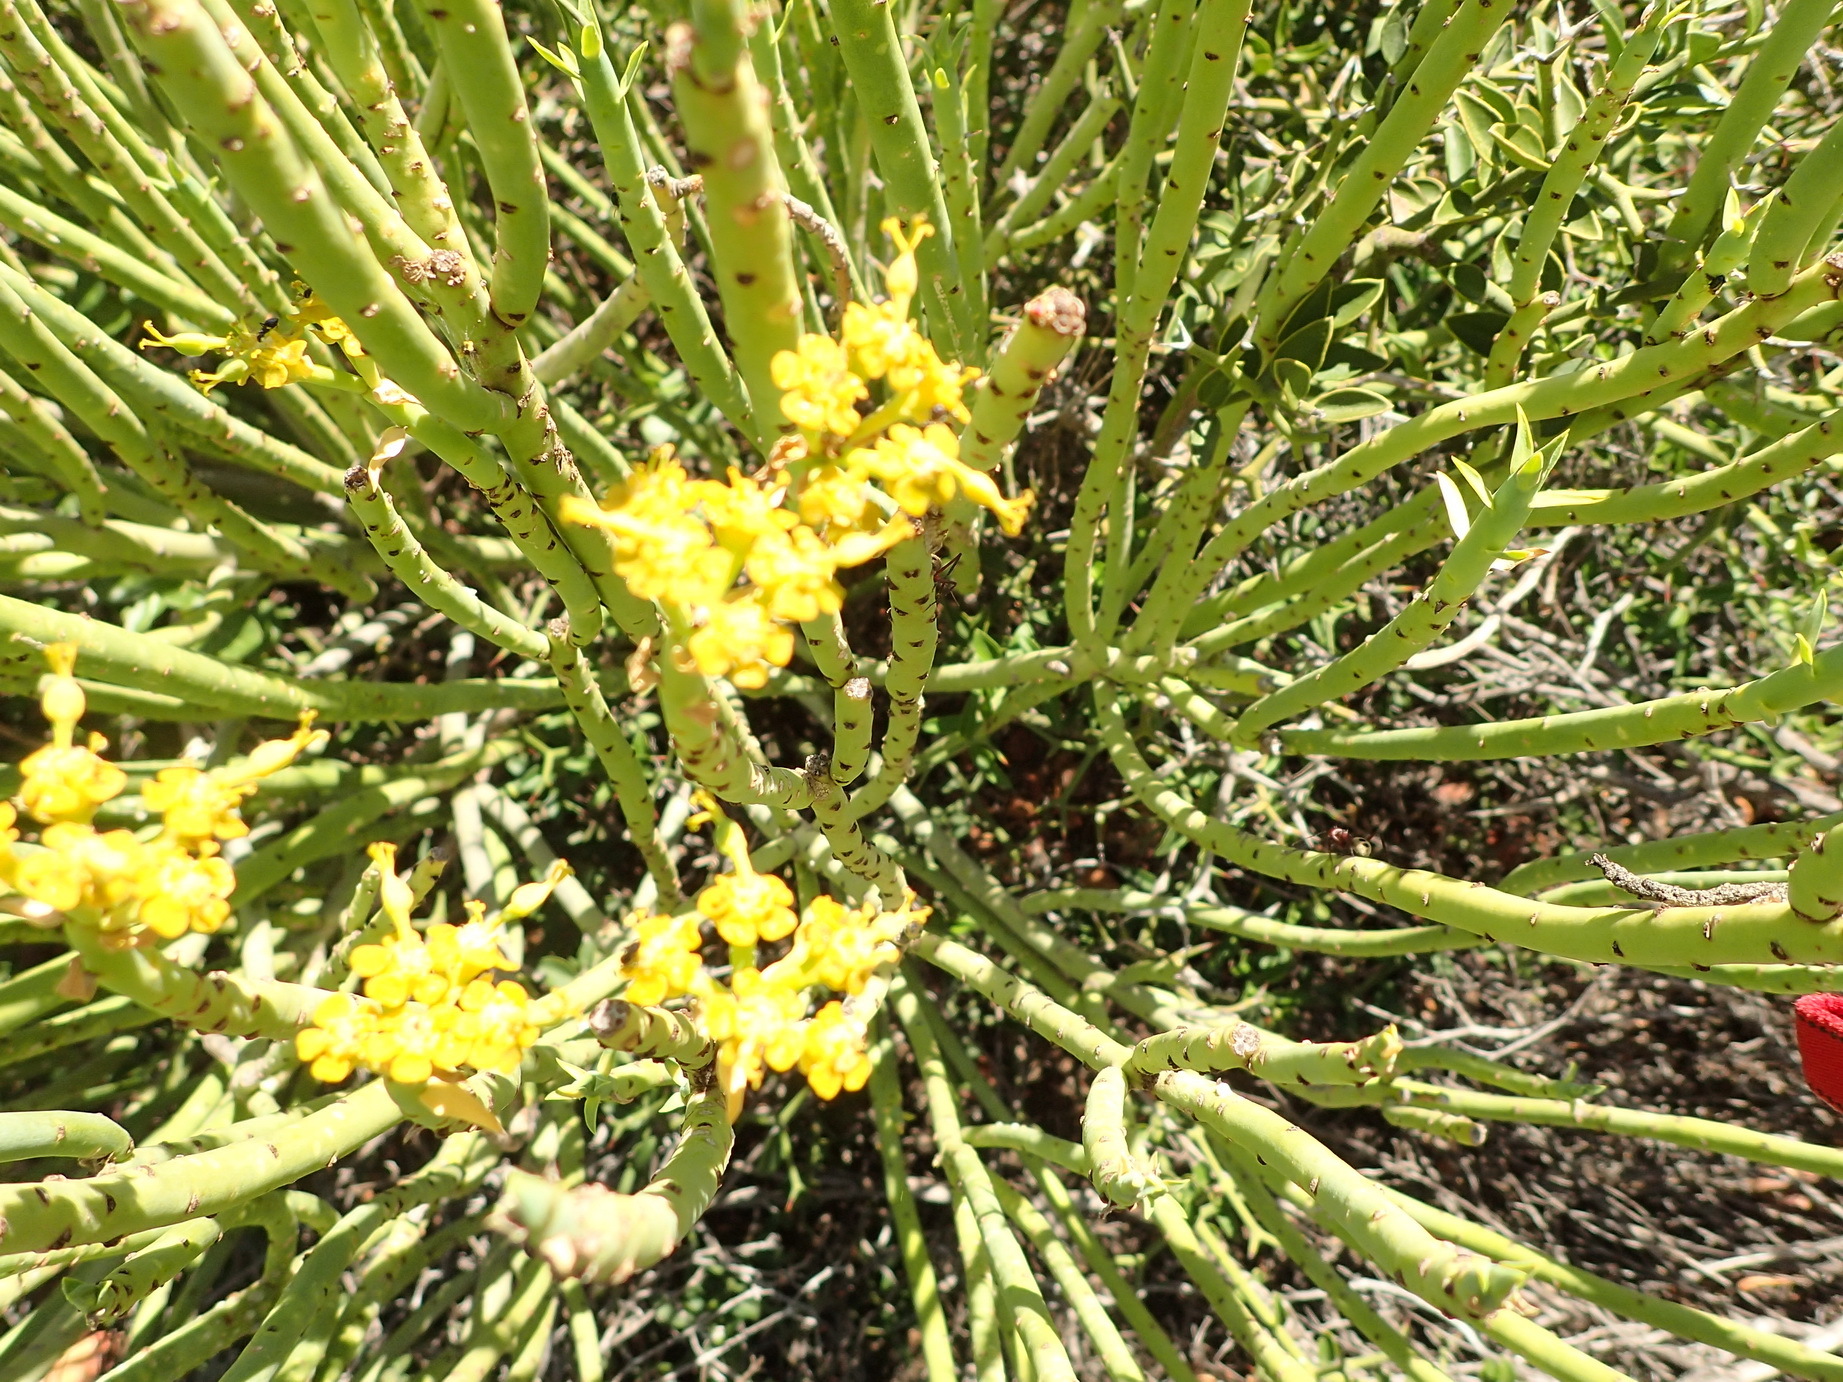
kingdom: Plantae
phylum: Tracheophyta
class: Magnoliopsida
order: Malpighiales
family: Euphorbiaceae
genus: Euphorbia
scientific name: Euphorbia mauritanica
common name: Jackal's-food
